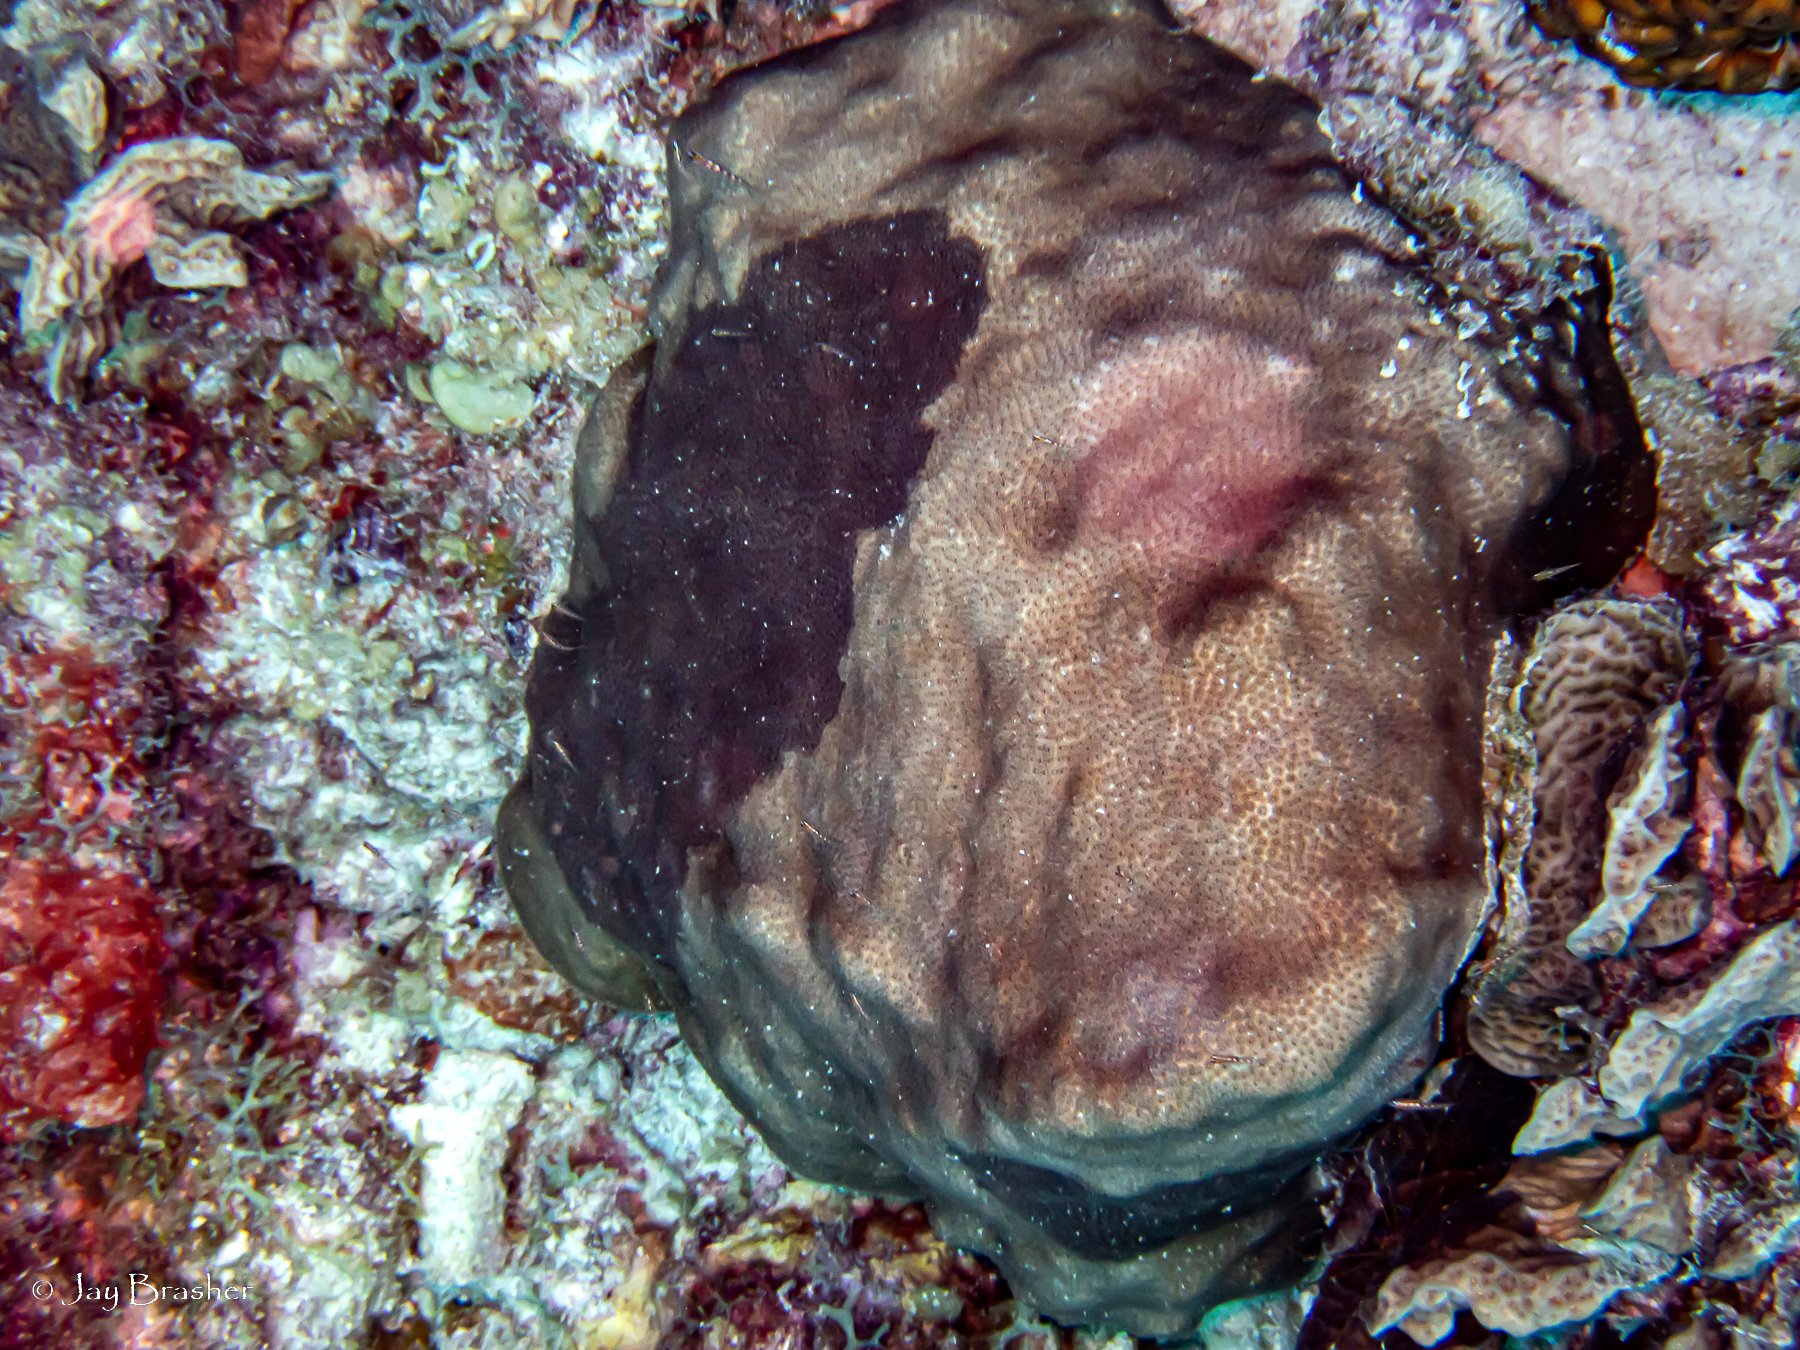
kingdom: Animalia
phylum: Cnidaria
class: Anthozoa
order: Scleractinia
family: Faviidae
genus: Solenastrea
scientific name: Solenastrea bournoni
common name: Smooth star coral
